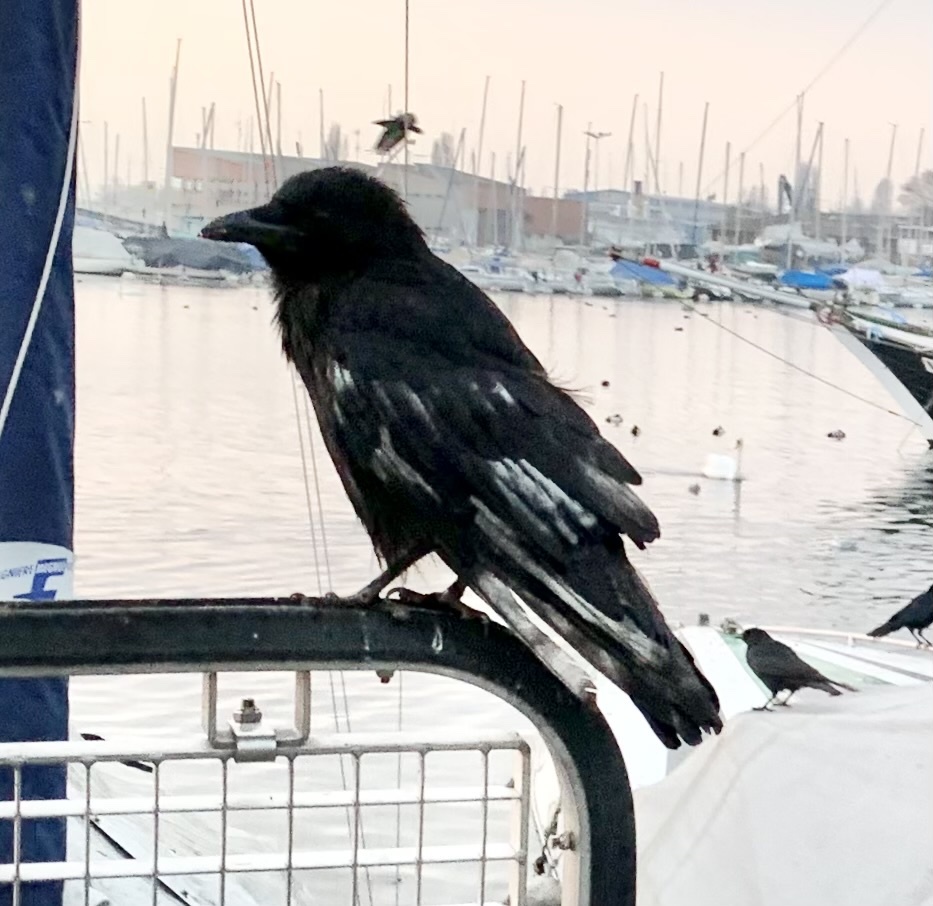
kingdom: Animalia
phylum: Chordata
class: Aves
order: Passeriformes
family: Corvidae
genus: Corvus
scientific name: Corvus corone
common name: Carrion crow
